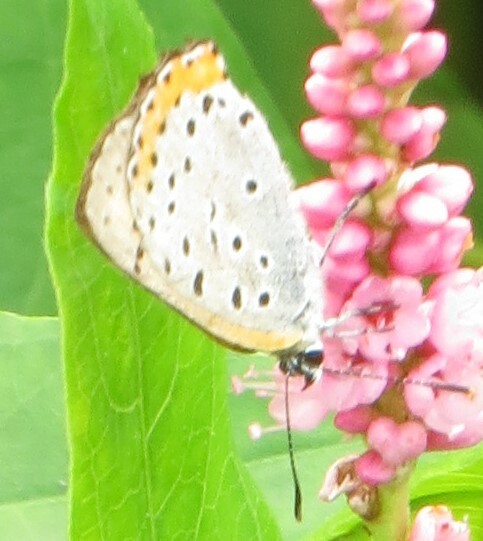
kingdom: Animalia
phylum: Arthropoda
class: Insecta
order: Lepidoptera
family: Lycaenidae
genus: Tharsalea
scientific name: Tharsalea hyllus
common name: Bronze copper
